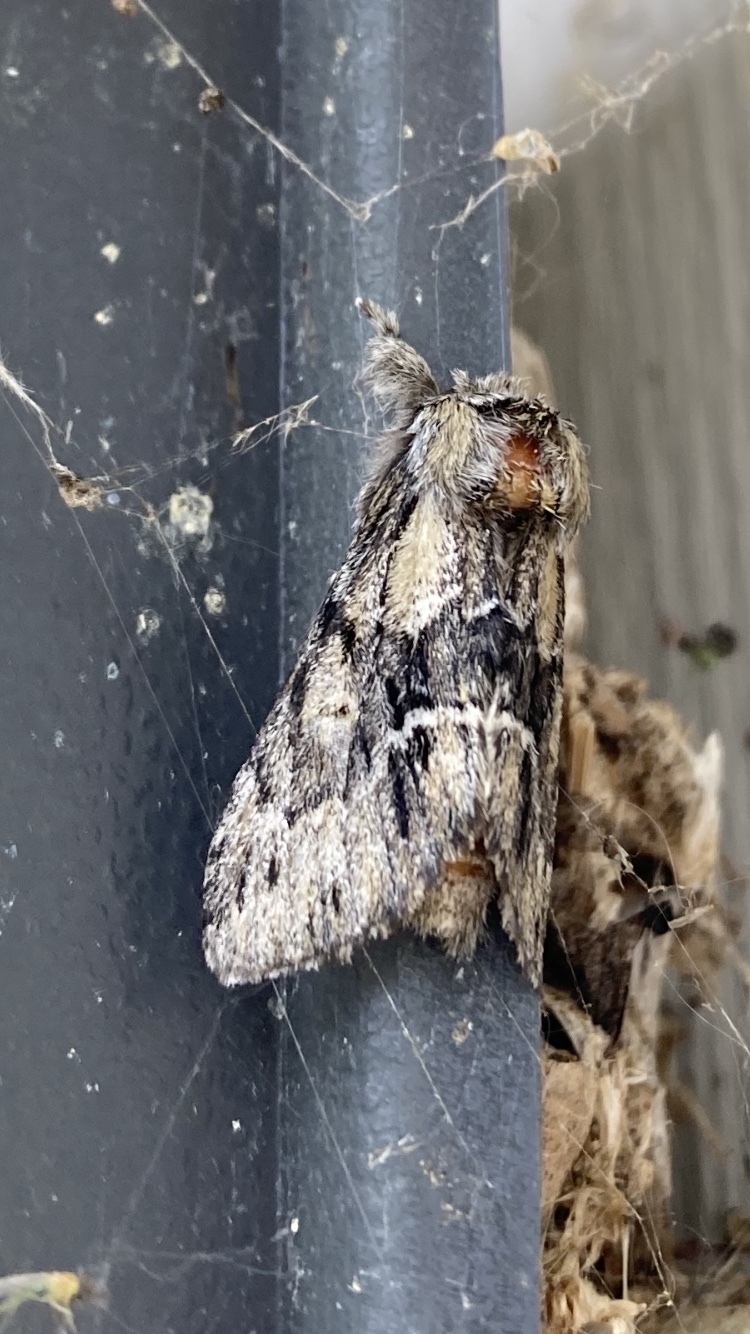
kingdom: Animalia
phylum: Arthropoda
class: Insecta
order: Lepidoptera
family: Notodontidae
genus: Paraeschra
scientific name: Paraeschra georgica
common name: Georgian prominent
